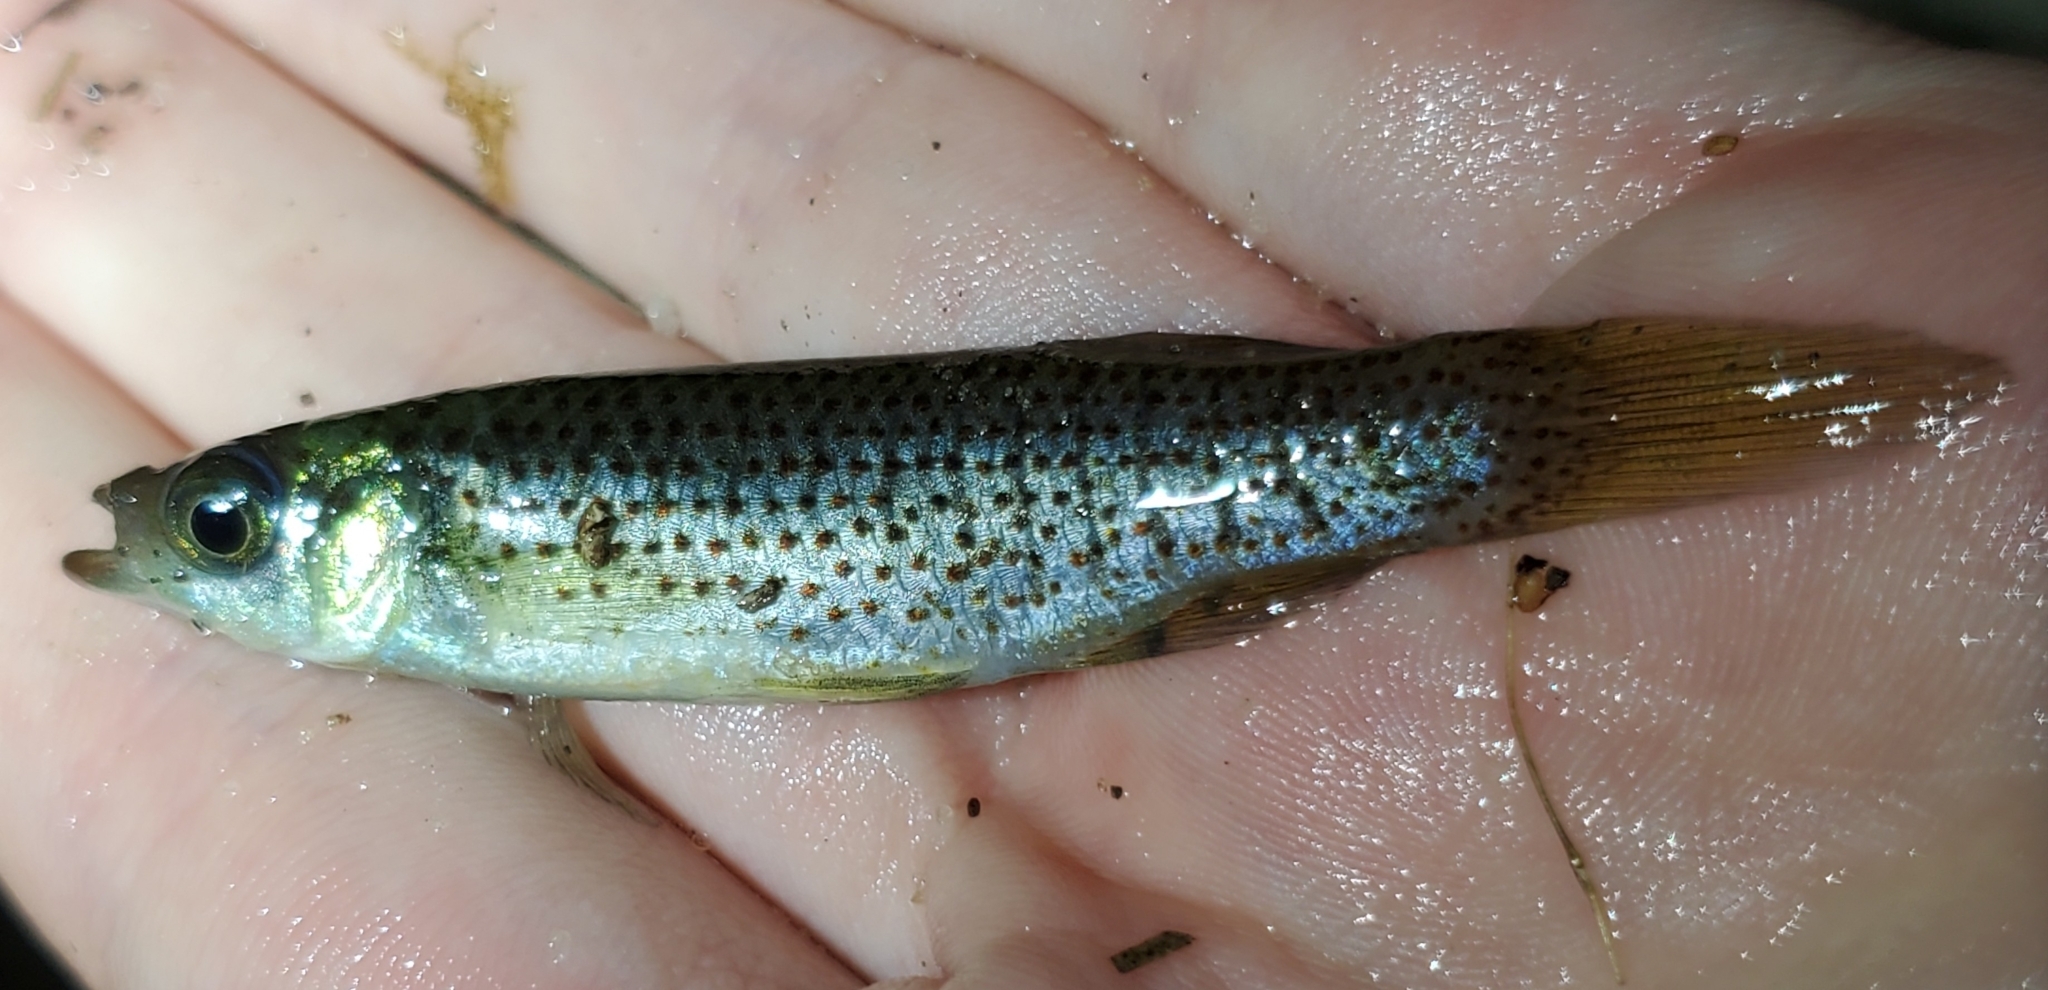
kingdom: Animalia
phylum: Chordata
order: Cyprinodontiformes
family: Fundulidae
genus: Fundulus
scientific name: Fundulus escambiae
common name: Russetfin topminnow
